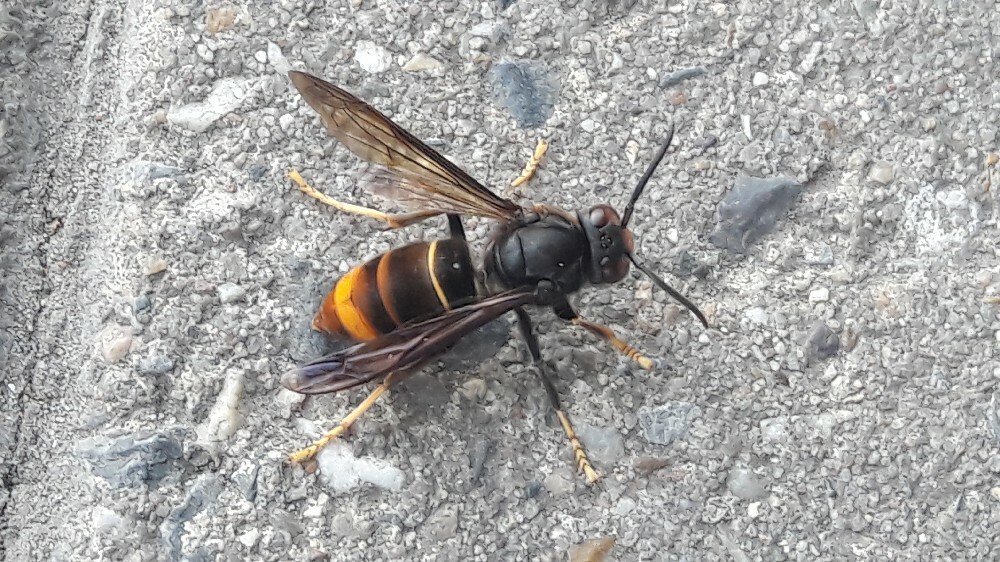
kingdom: Animalia
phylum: Arthropoda
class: Insecta
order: Hymenoptera
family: Vespidae
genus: Vespa
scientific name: Vespa velutina
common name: Asian hornet
